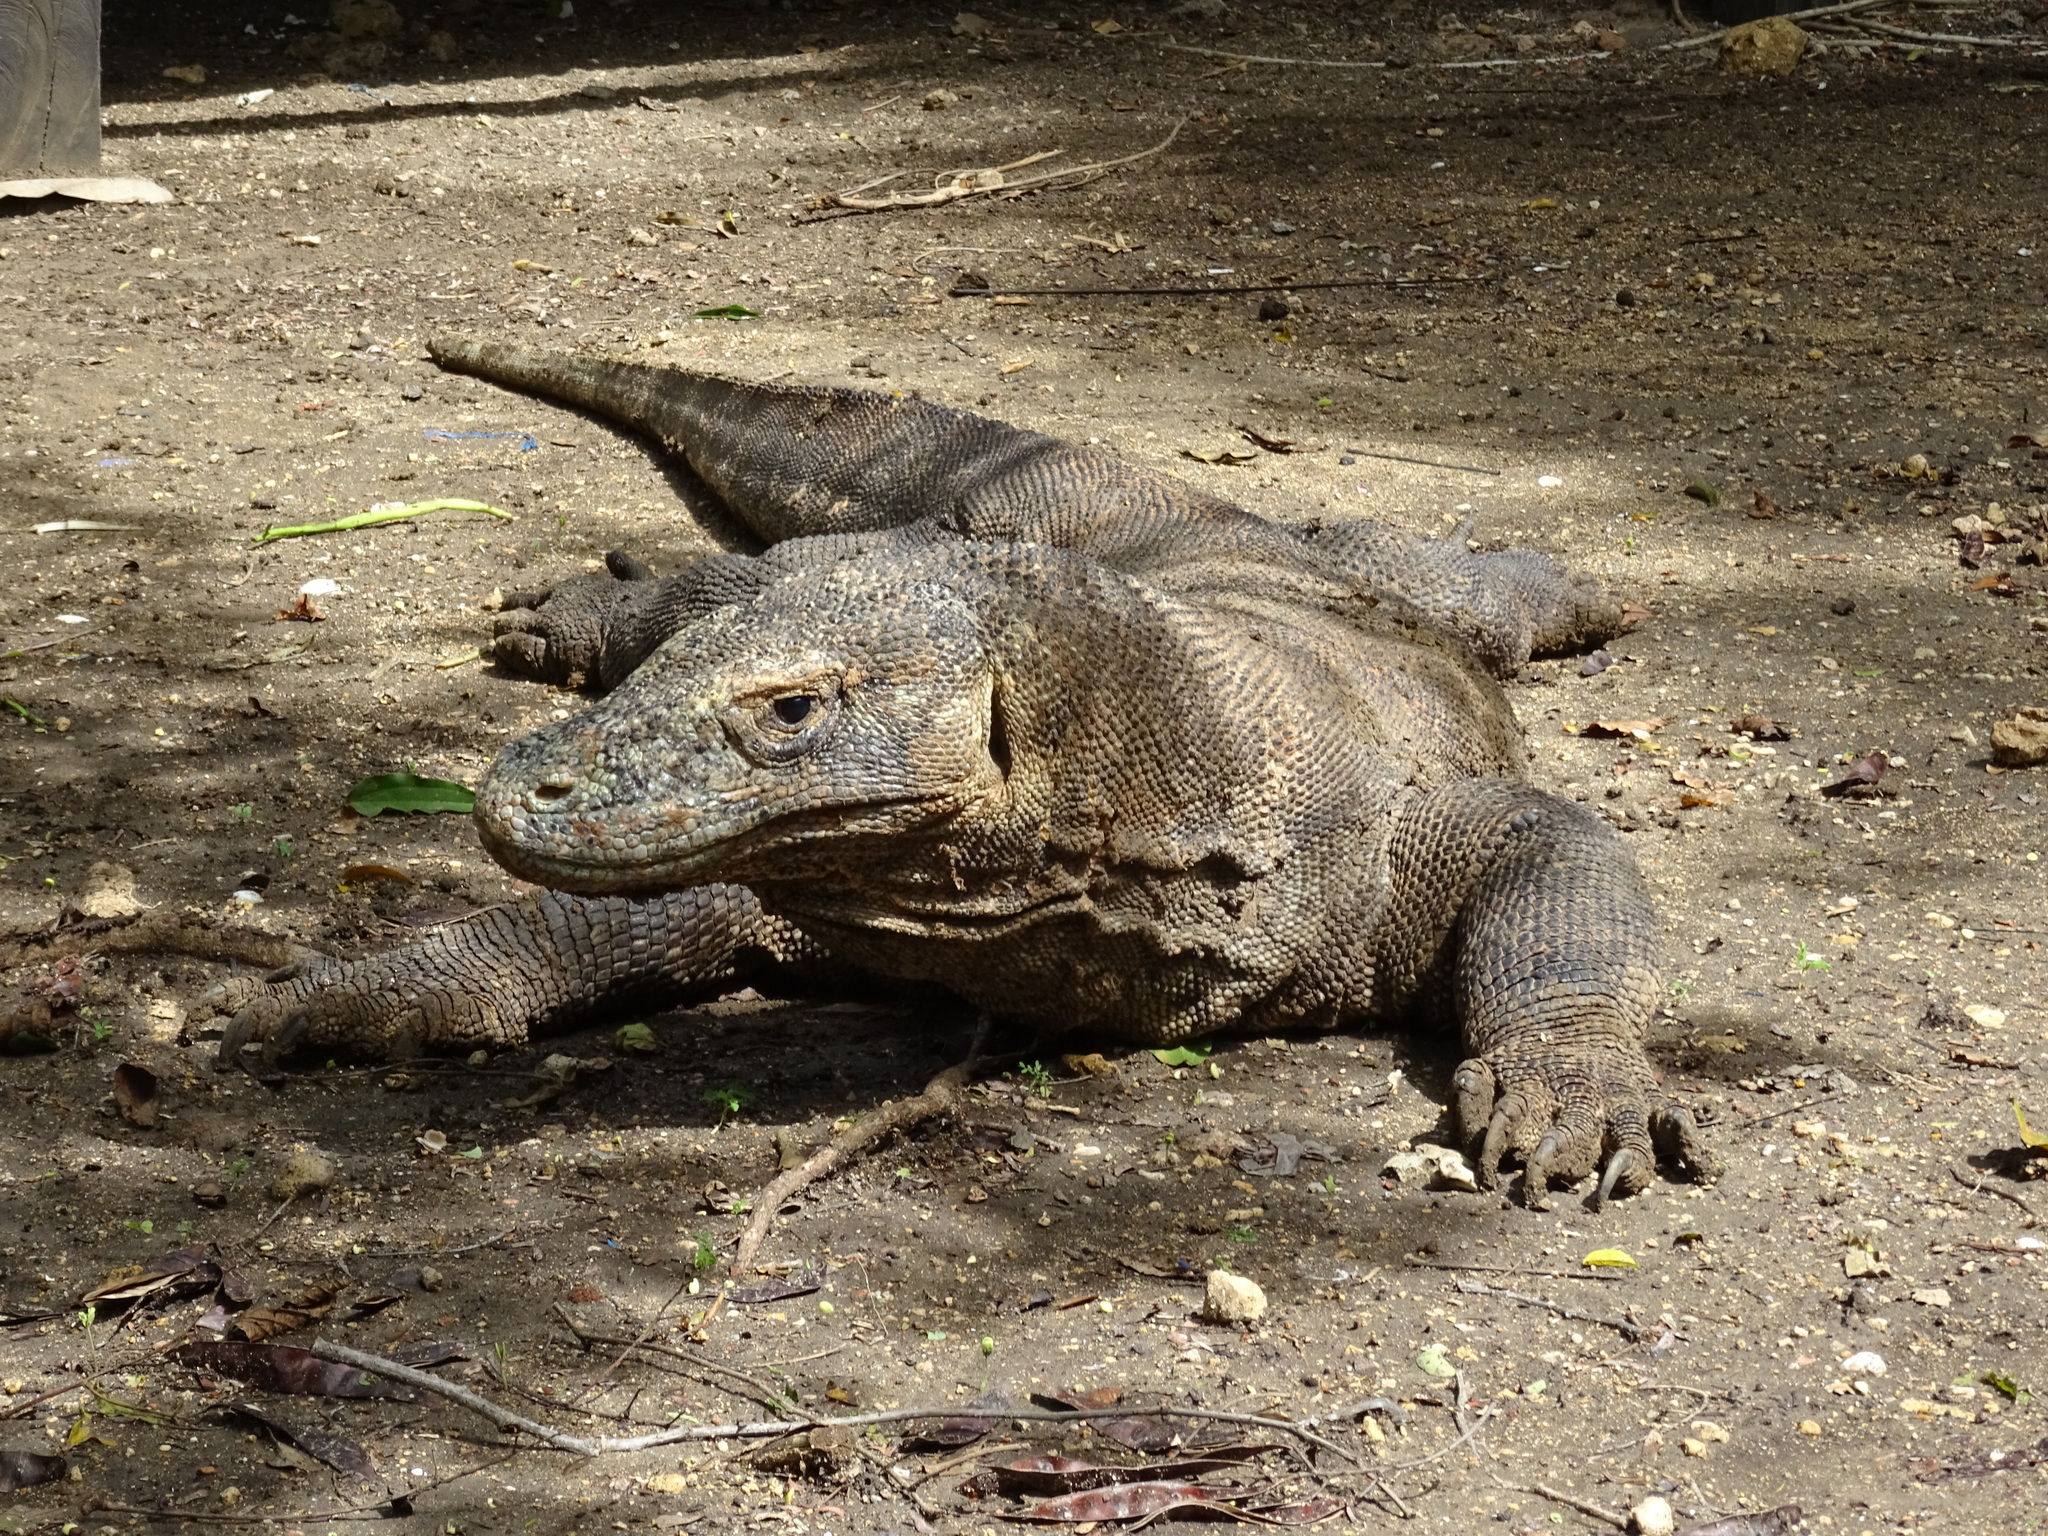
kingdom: Animalia
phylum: Chordata
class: Squamata
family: Varanidae
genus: Varanus
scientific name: Varanus komodoensis
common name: Komodo dragon
